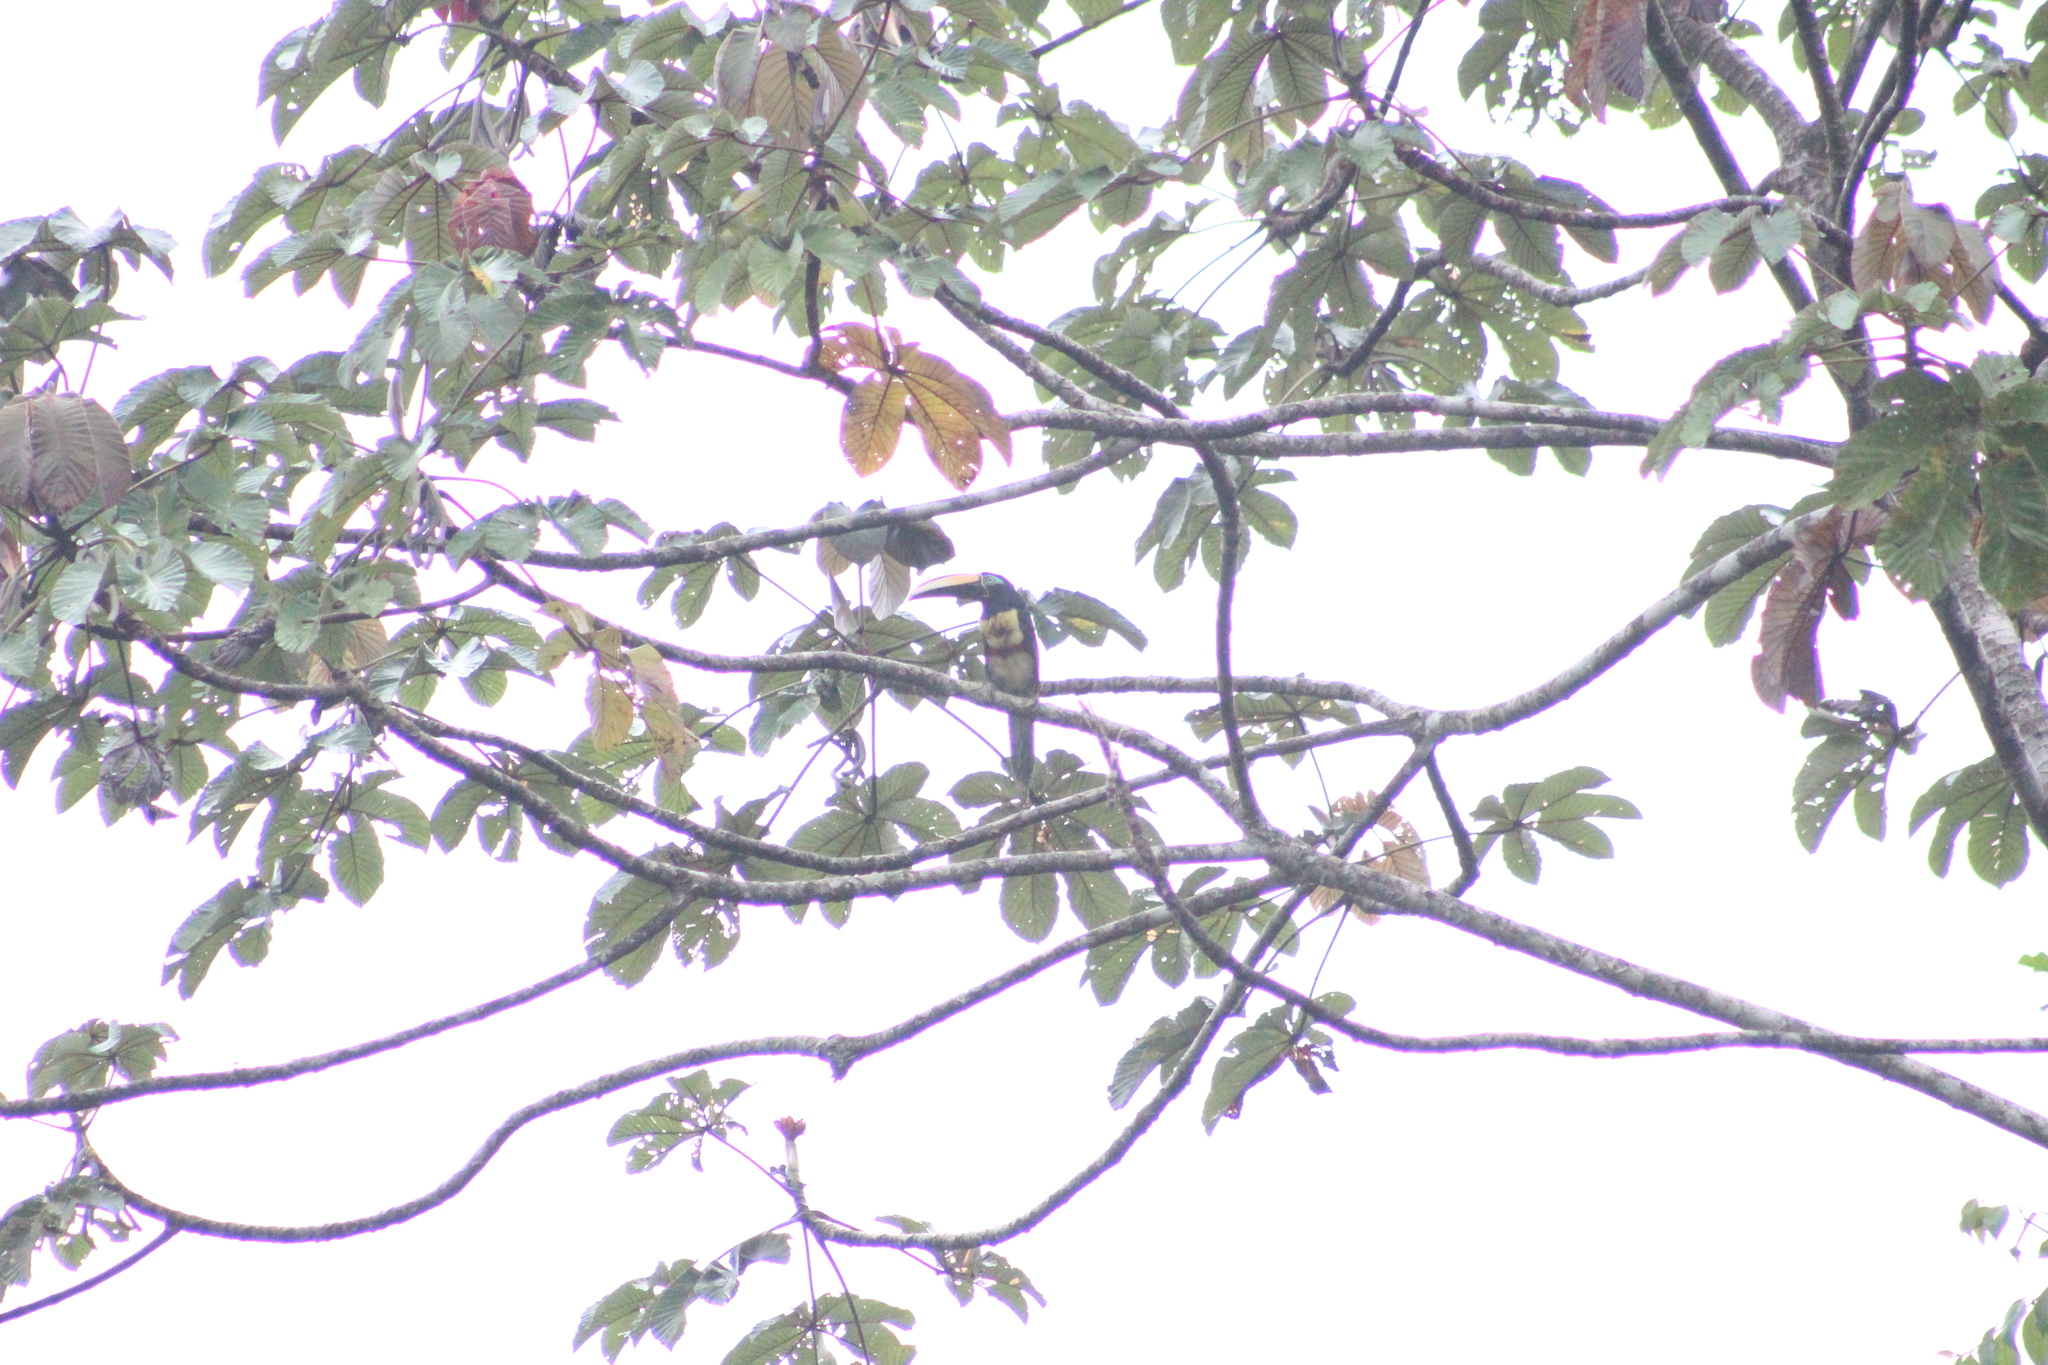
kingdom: Animalia
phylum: Chordata
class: Aves
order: Piciformes
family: Ramphastidae
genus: Pteroglossus
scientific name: Pteroglossus castanotis
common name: Chestnut-eared aracari
